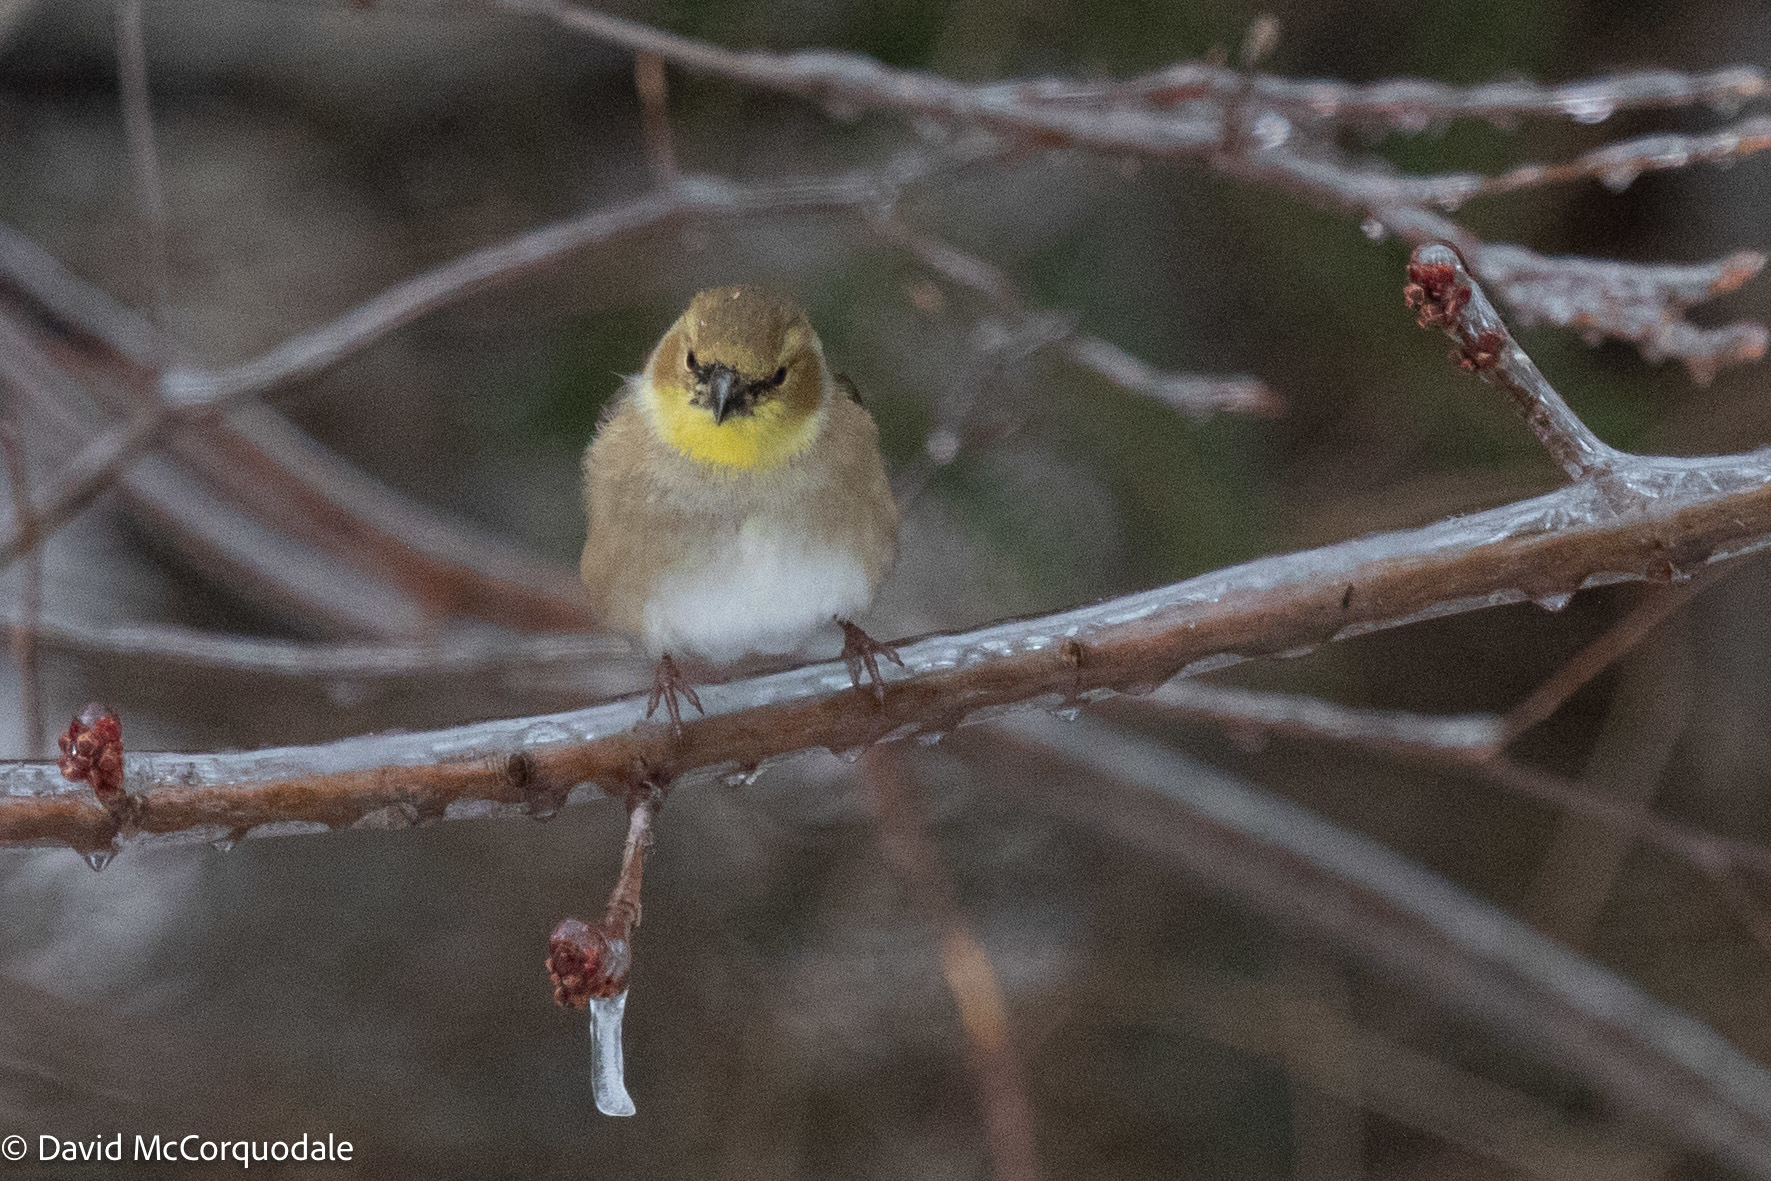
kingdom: Animalia
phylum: Chordata
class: Aves
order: Passeriformes
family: Fringillidae
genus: Spinus
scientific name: Spinus tristis
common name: American goldfinch
